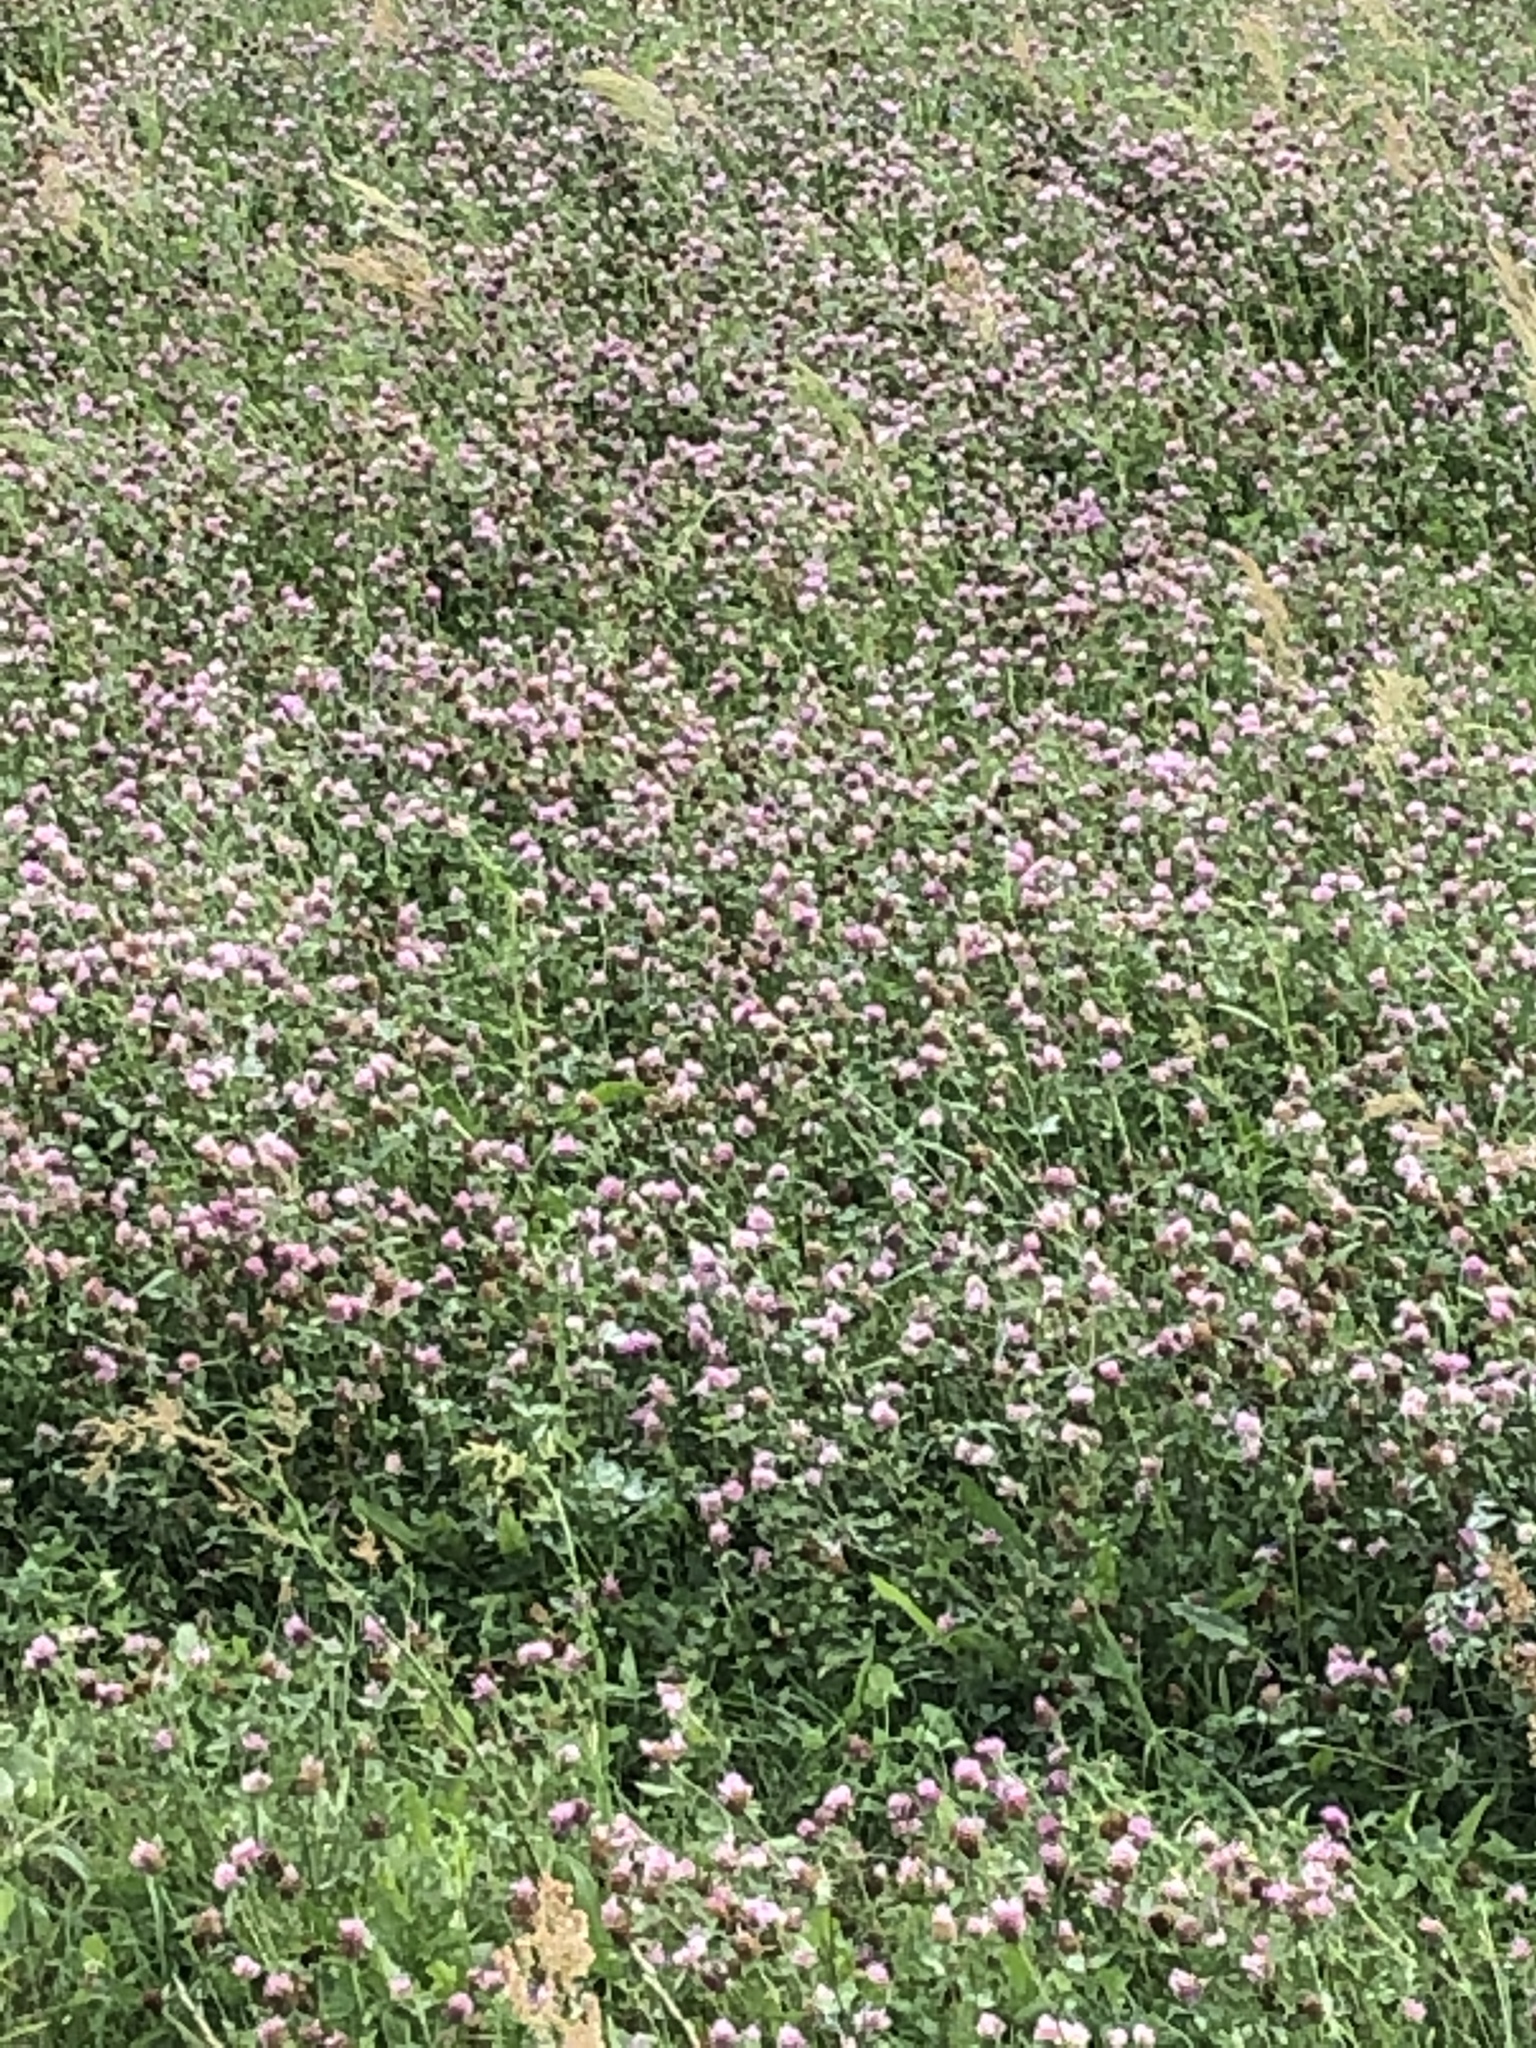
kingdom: Plantae
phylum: Tracheophyta
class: Magnoliopsida
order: Fabales
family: Fabaceae
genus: Trifolium
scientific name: Trifolium pratense
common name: Red clover
